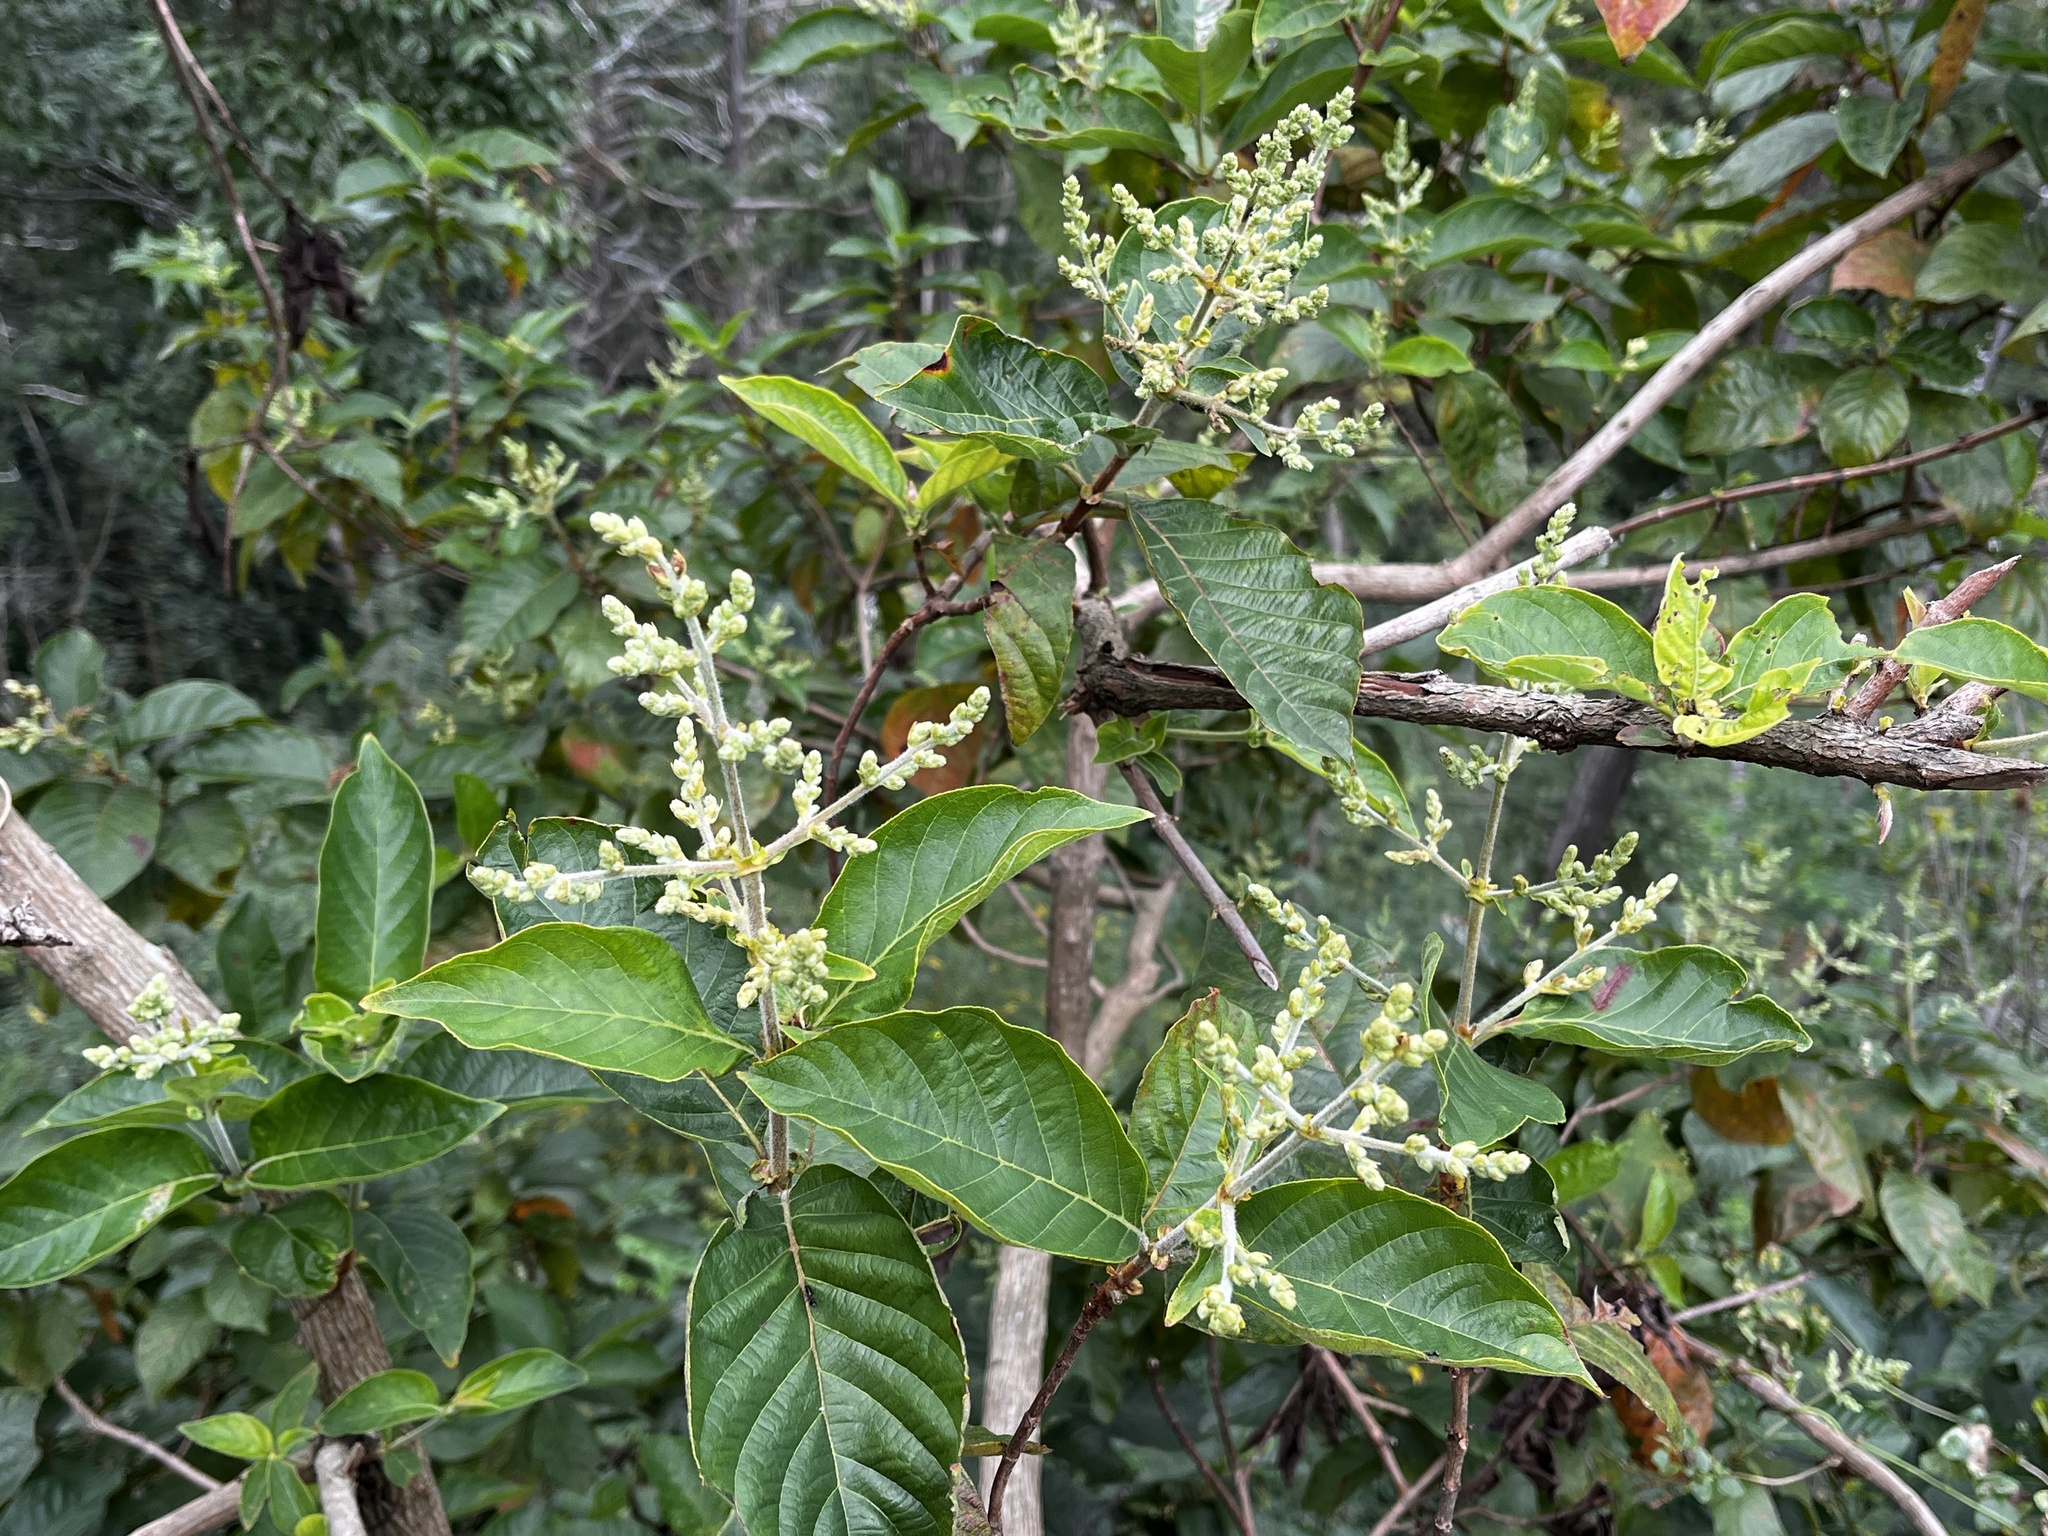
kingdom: Plantae
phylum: Tracheophyta
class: Magnoliopsida
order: Gentianales
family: Rubiaceae
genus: Wendlandia
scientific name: Wendlandia uvariifolia
